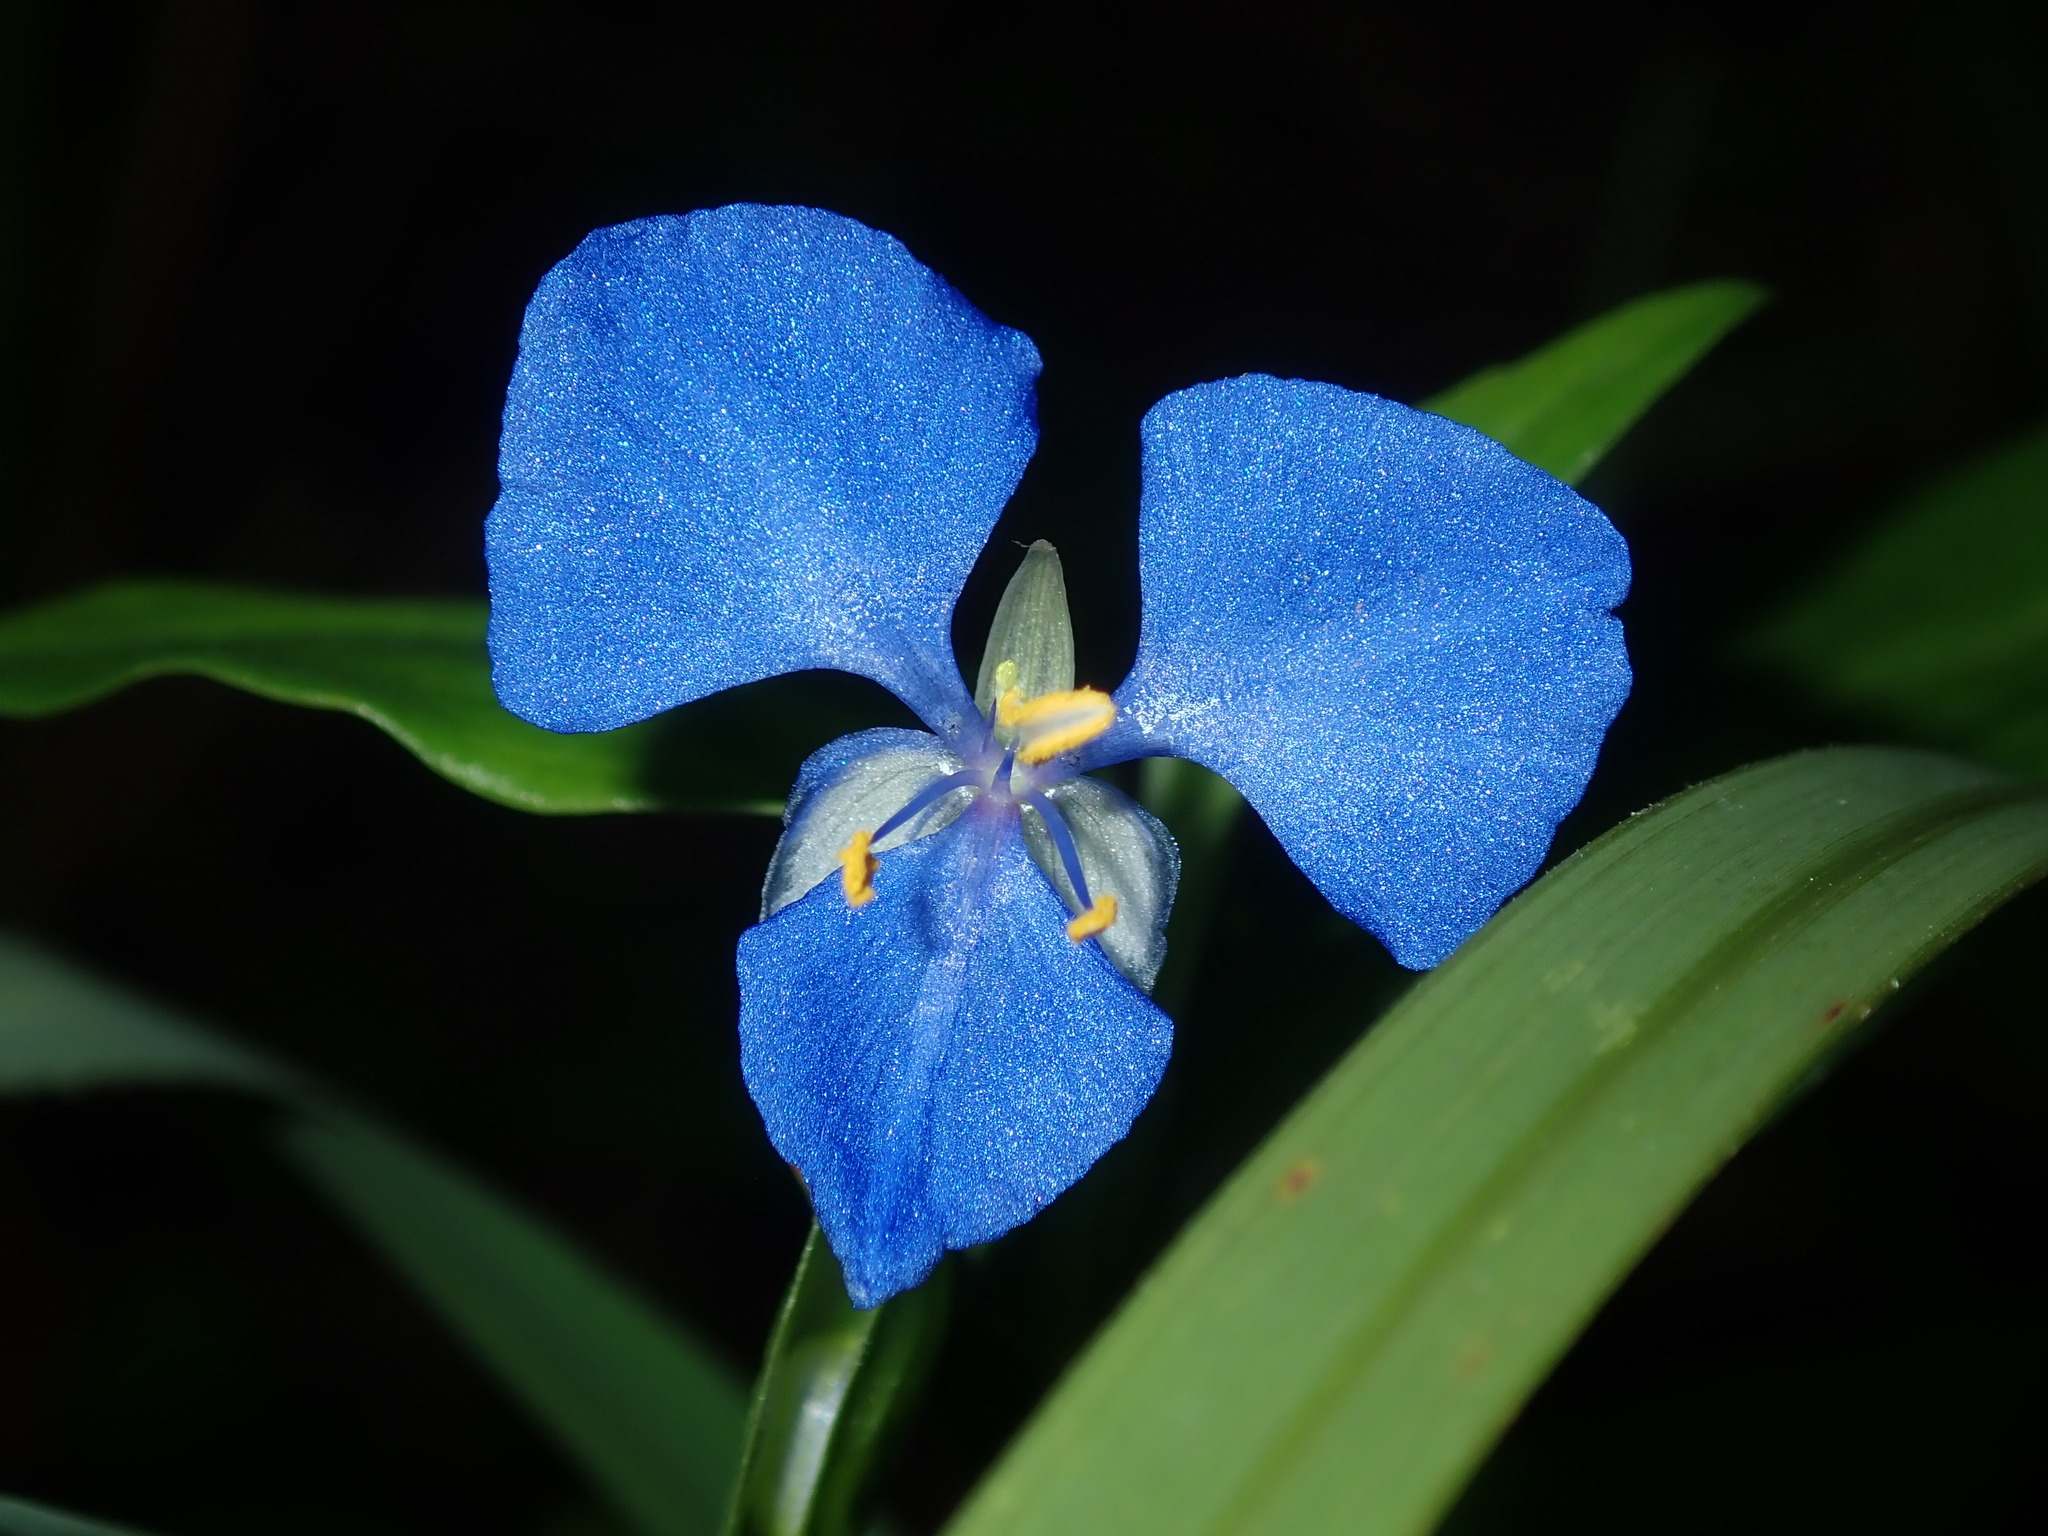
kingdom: Plantae
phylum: Tracheophyta
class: Liliopsida
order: Commelinales
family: Commelinaceae
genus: Commelina
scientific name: Commelina cyanea
